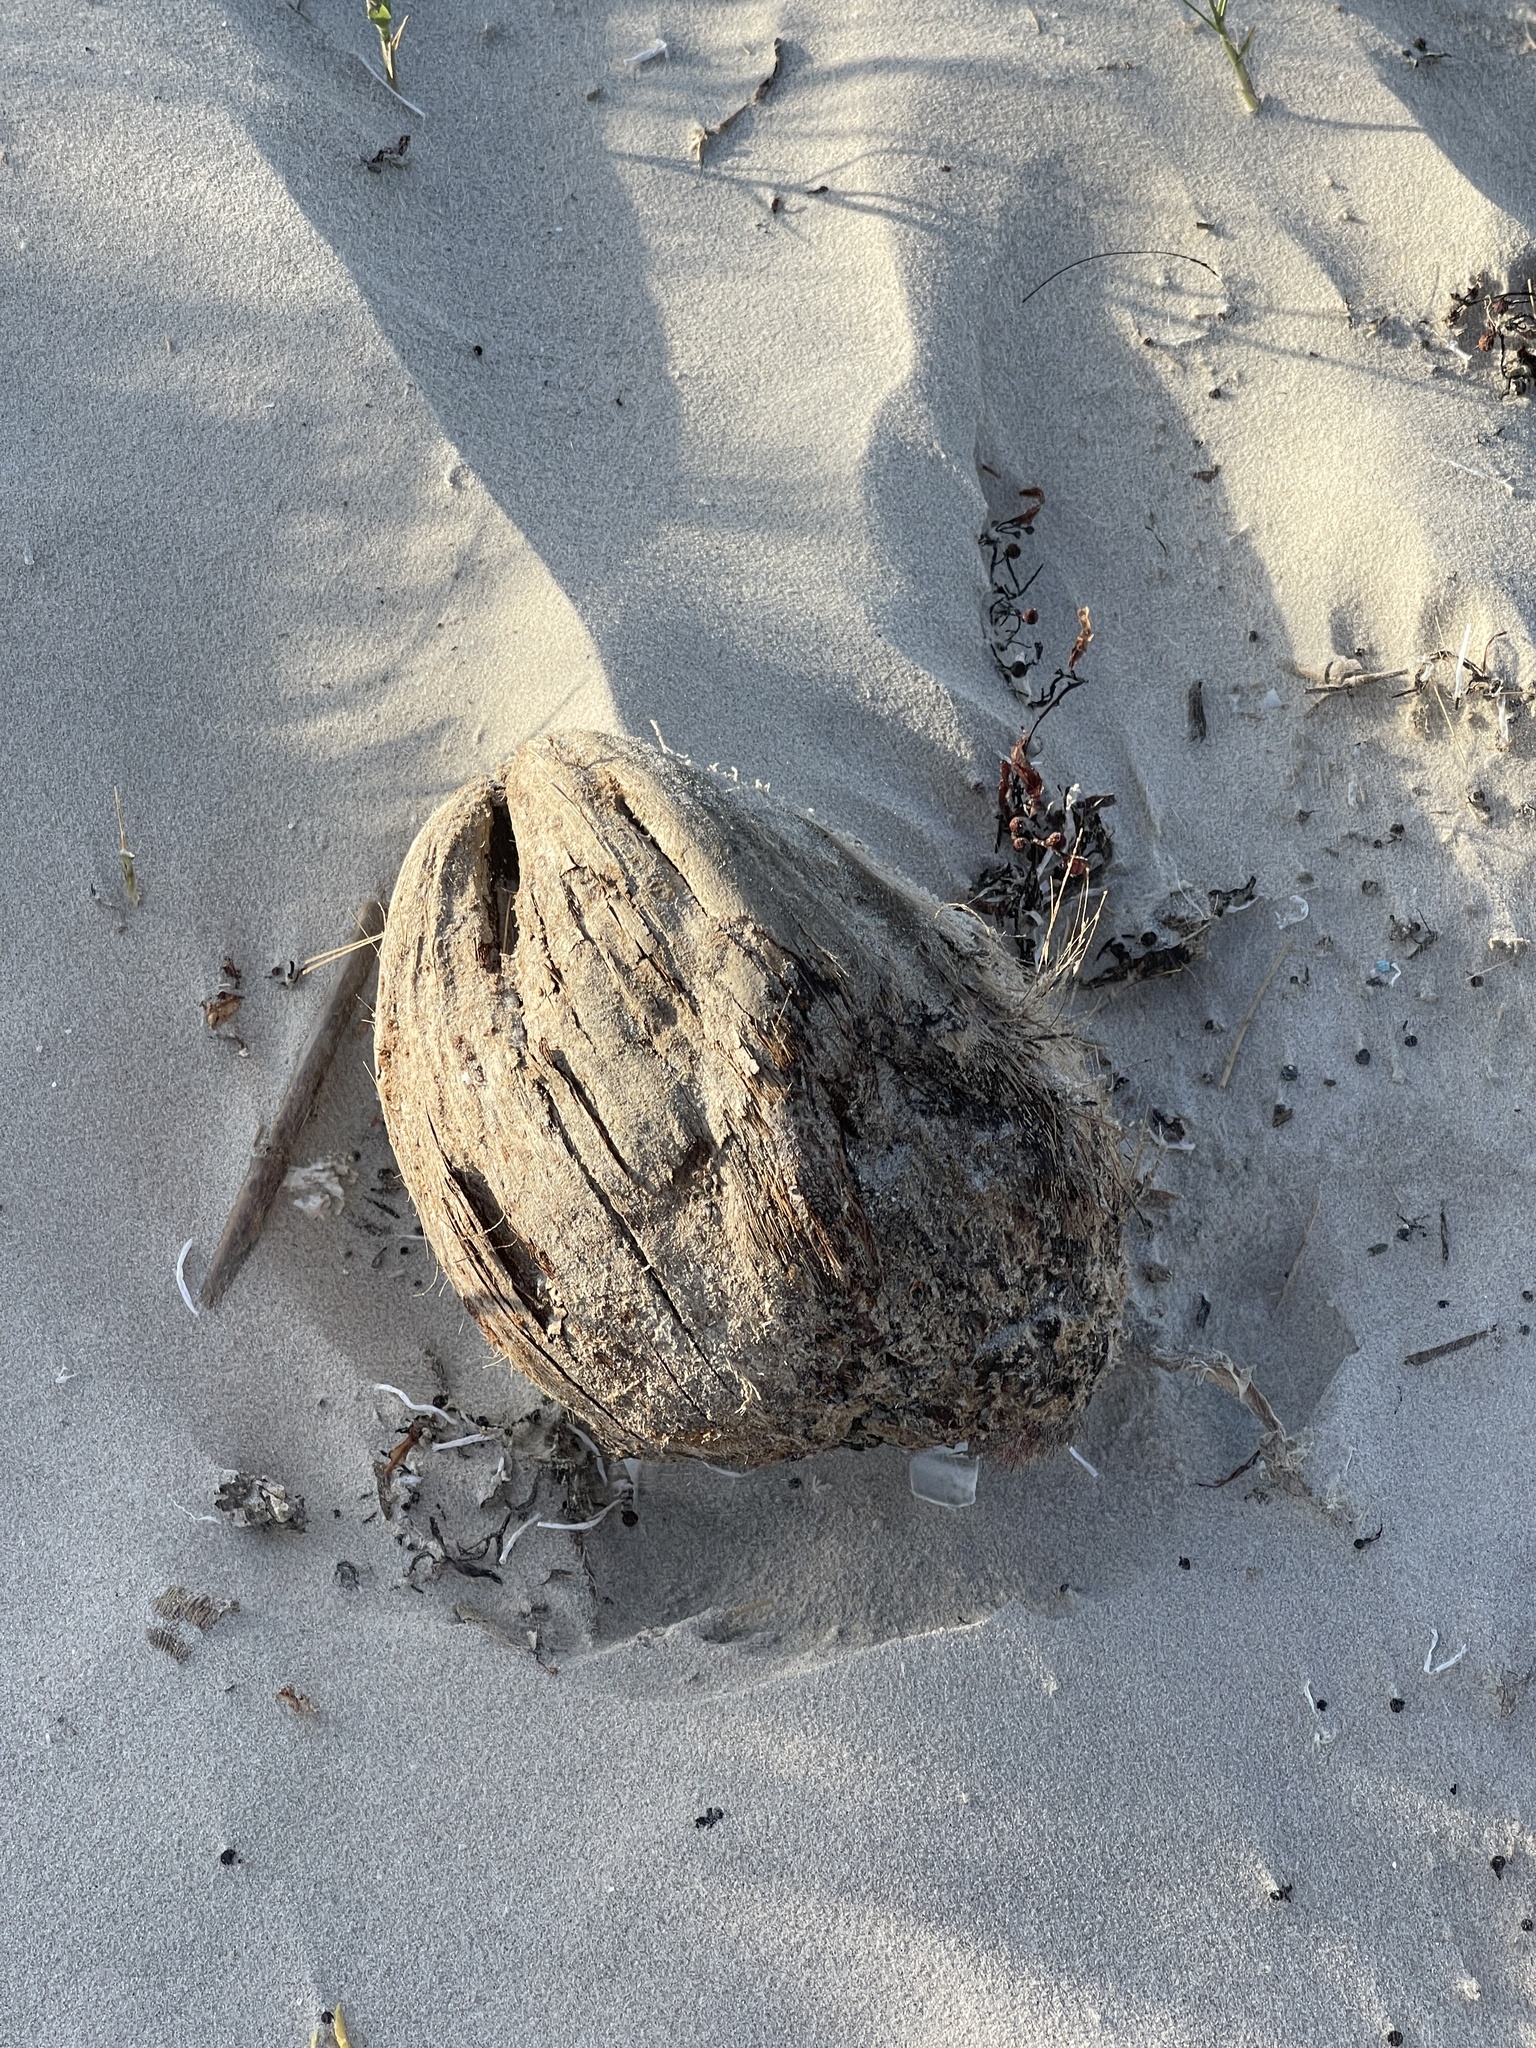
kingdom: Plantae
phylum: Tracheophyta
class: Liliopsida
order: Arecales
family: Arecaceae
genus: Cocos
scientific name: Cocos nucifera
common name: Coconut palm
